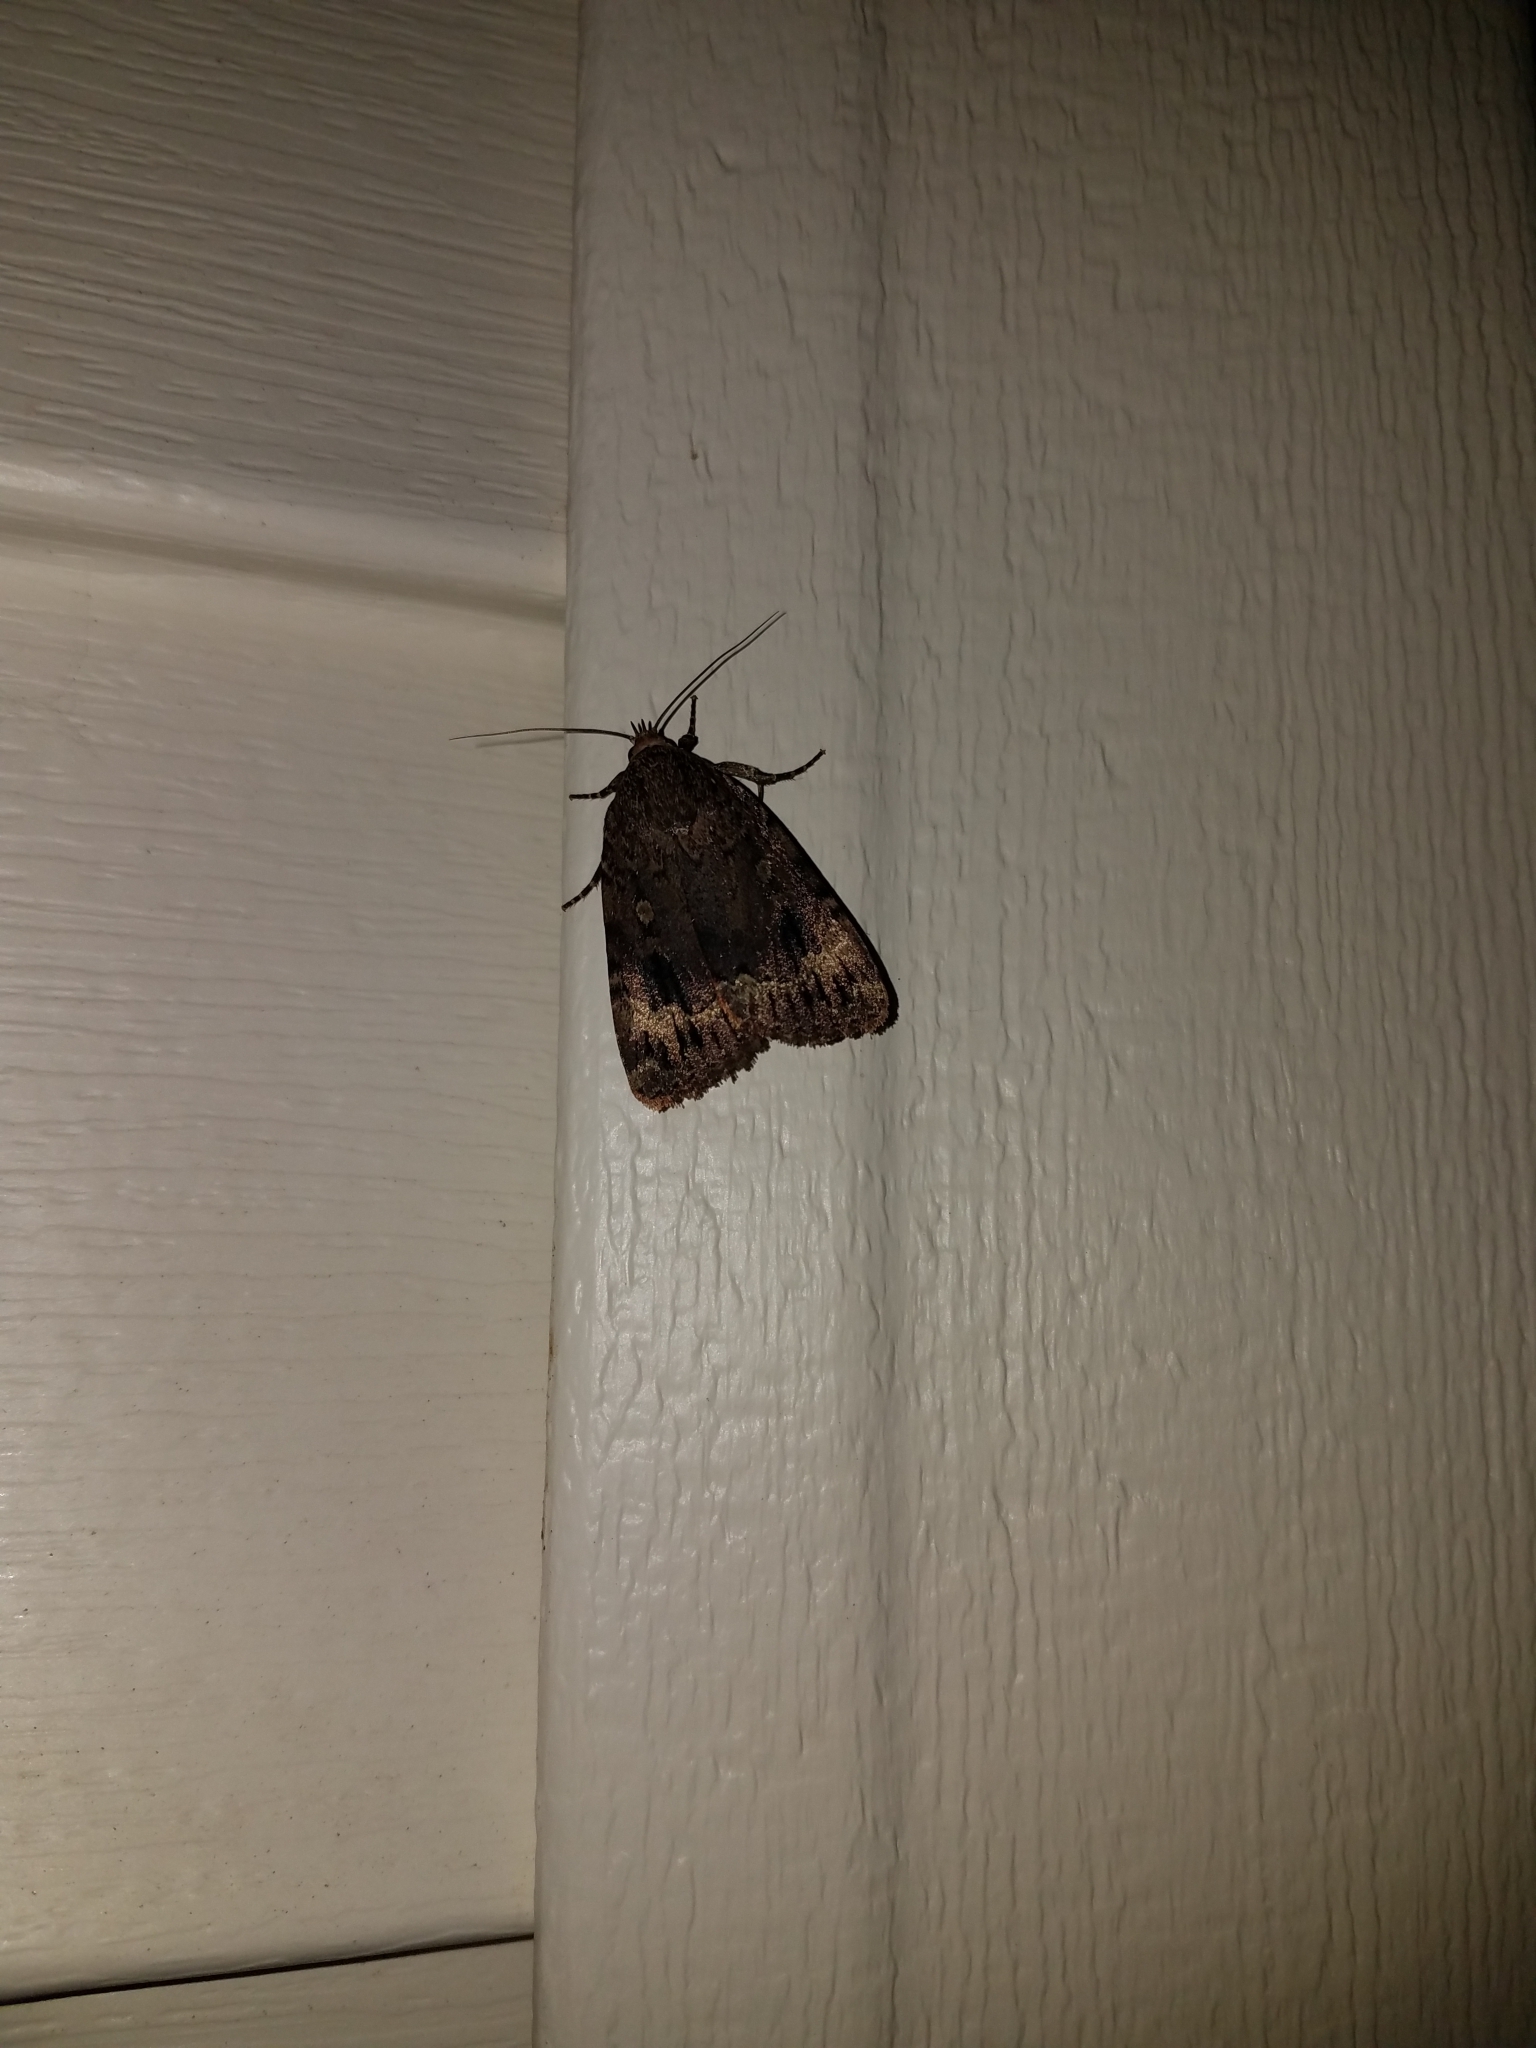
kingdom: Animalia
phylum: Arthropoda
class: Insecta
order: Lepidoptera
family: Noctuidae
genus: Amphipyra
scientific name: Amphipyra pyramidoides
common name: American copper underwing
